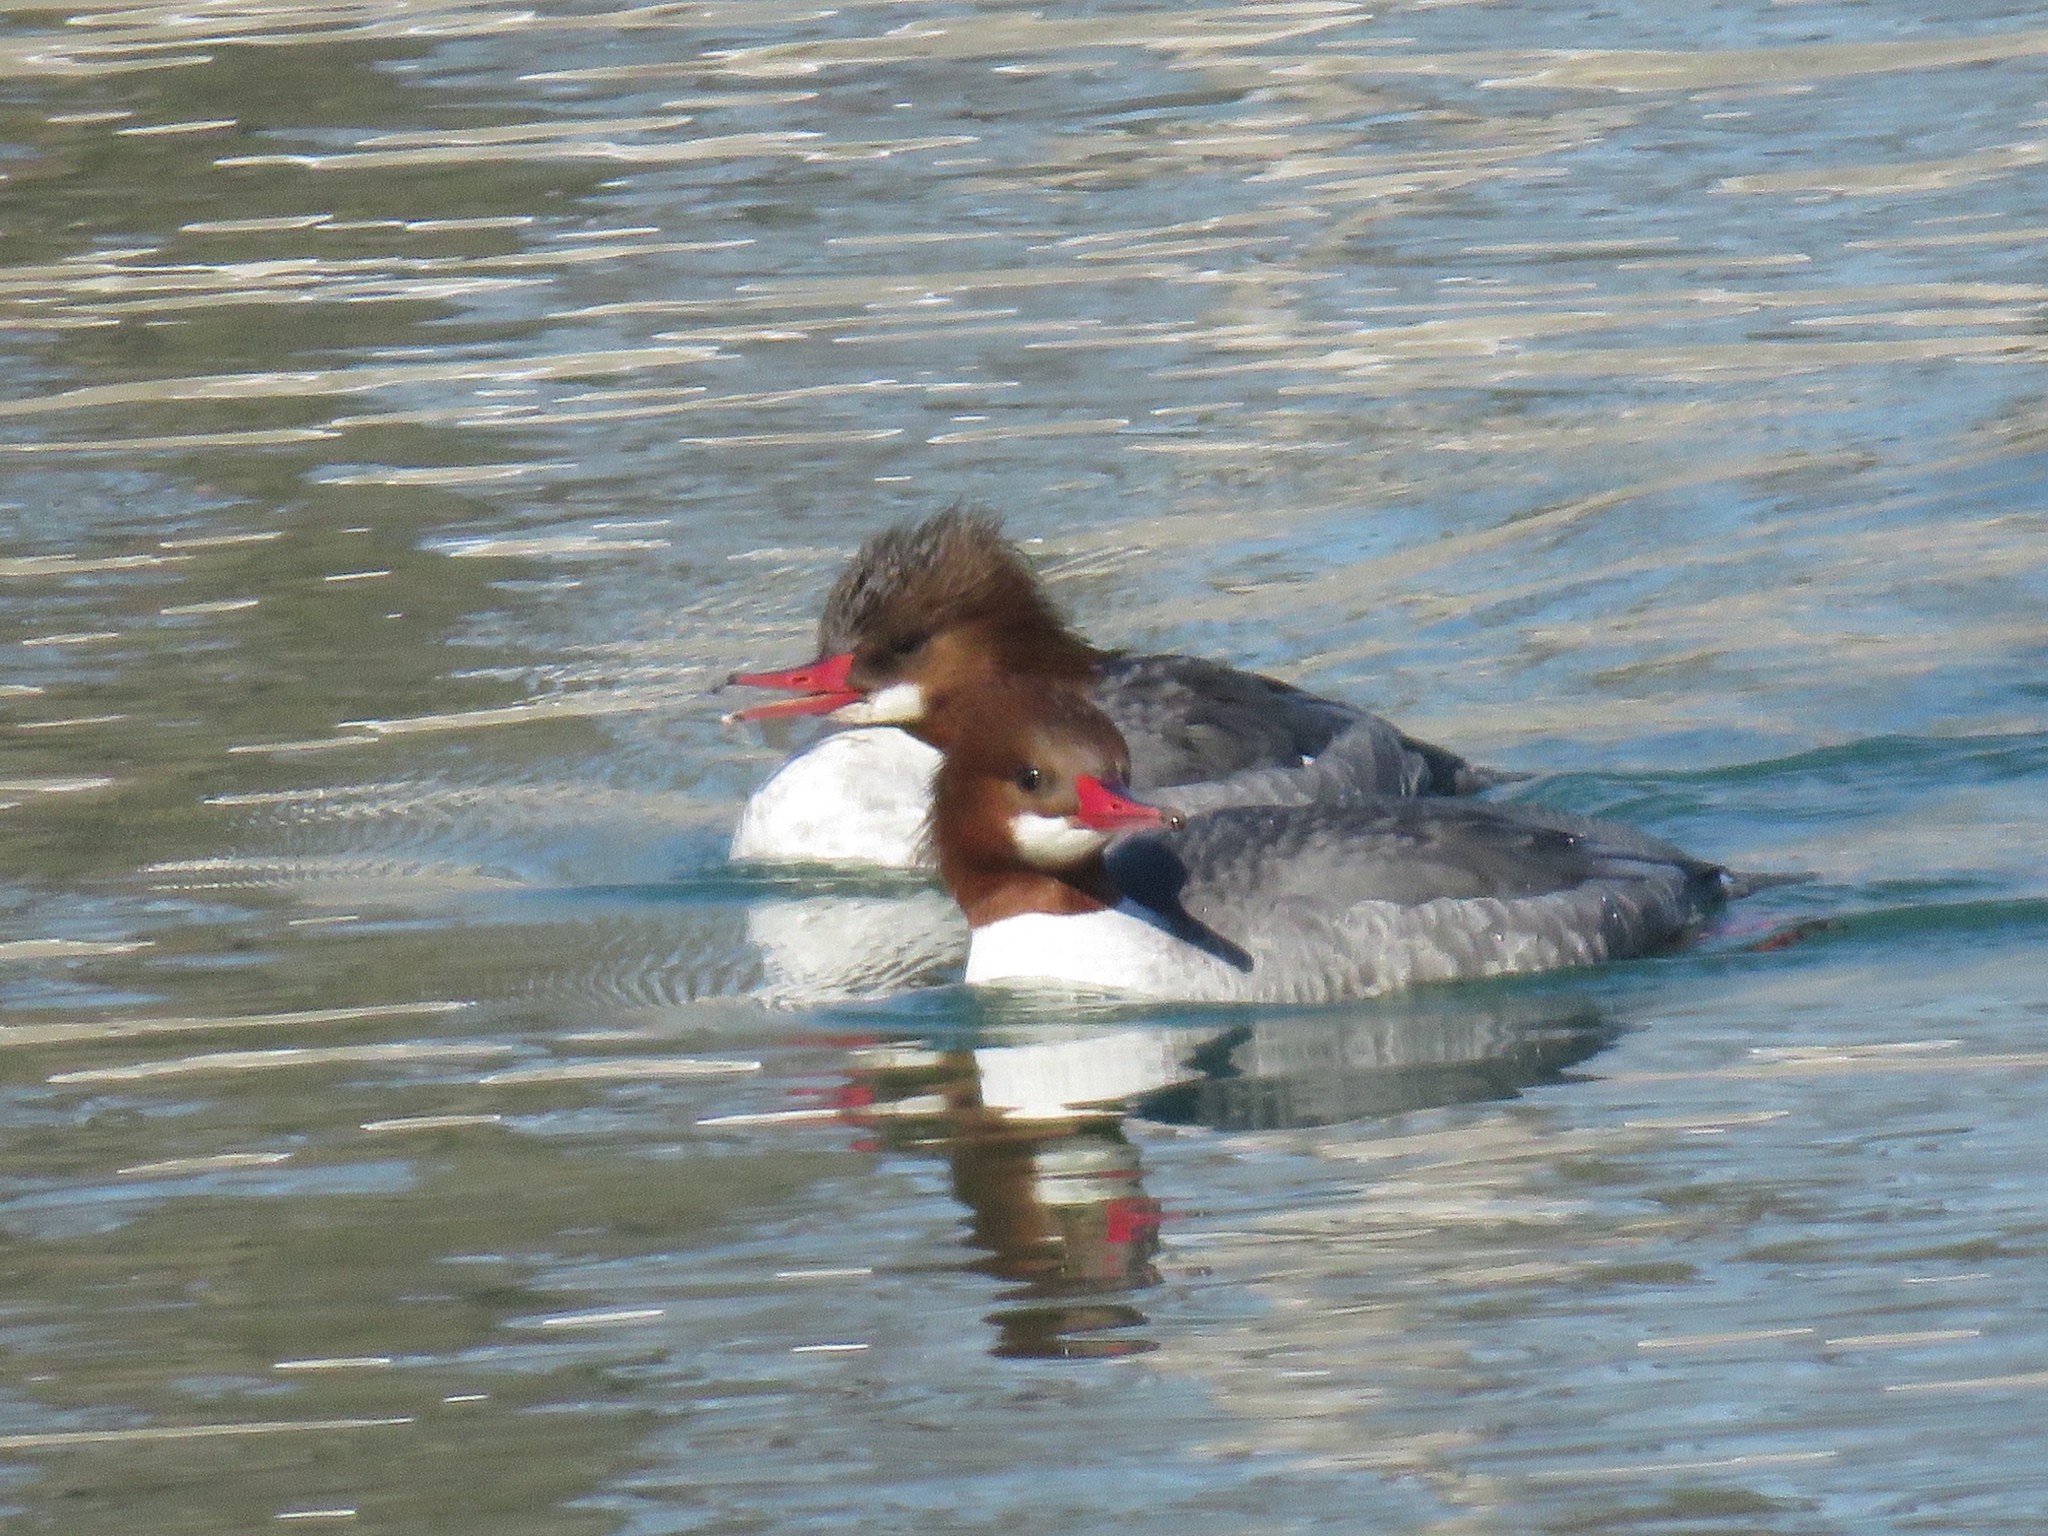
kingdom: Animalia
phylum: Chordata
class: Aves
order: Anseriformes
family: Anatidae
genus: Mergus
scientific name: Mergus merganser
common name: Common merganser
